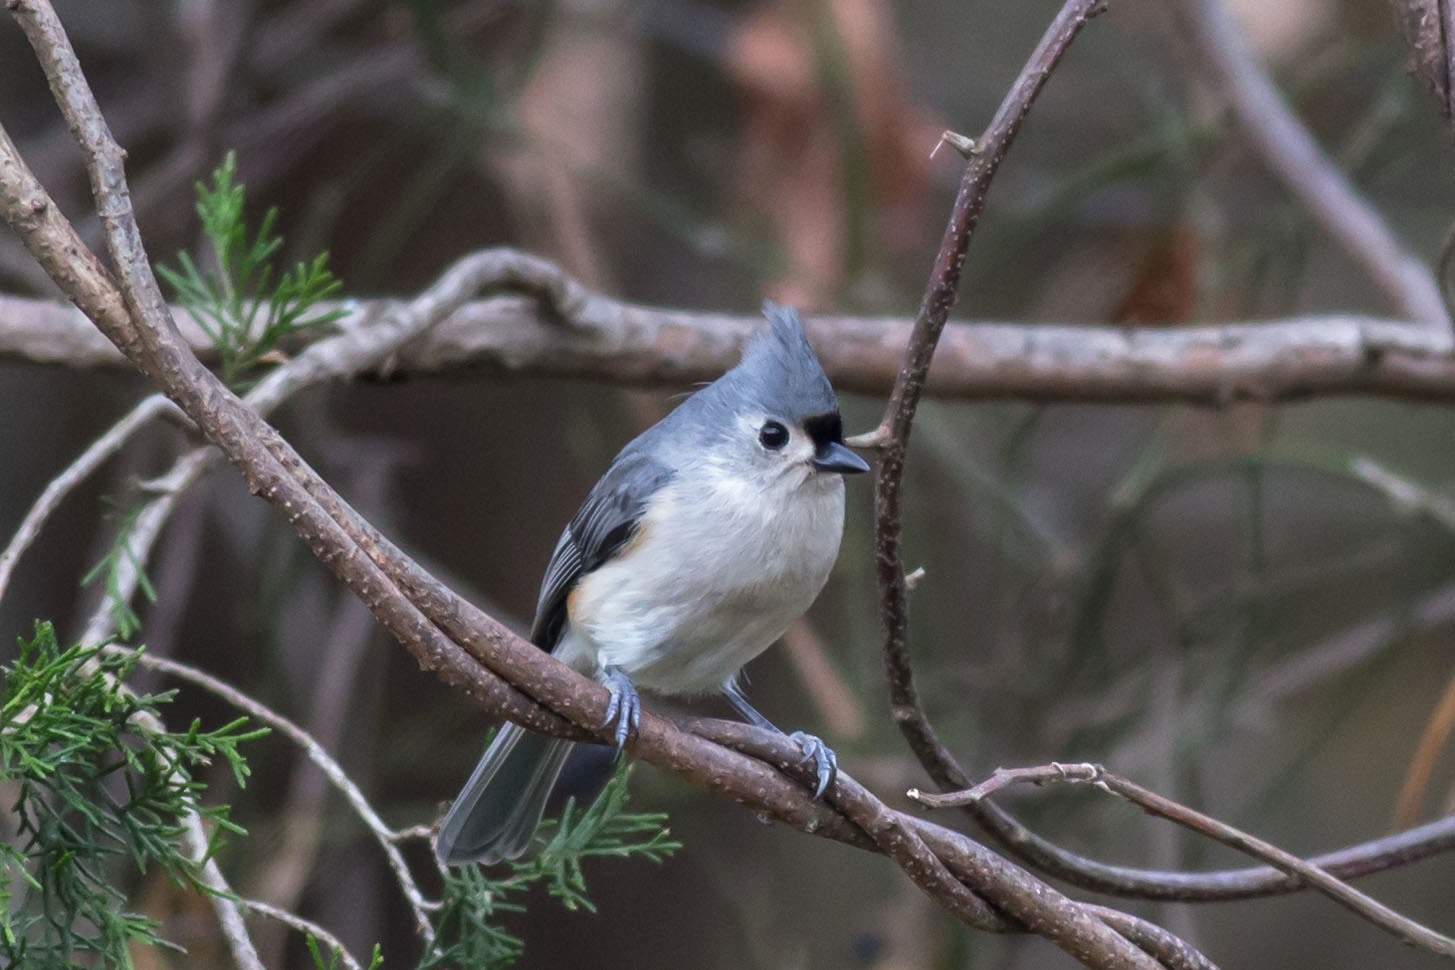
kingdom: Animalia
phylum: Chordata
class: Aves
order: Passeriformes
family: Paridae
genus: Baeolophus
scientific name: Baeolophus bicolor
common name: Tufted titmouse
